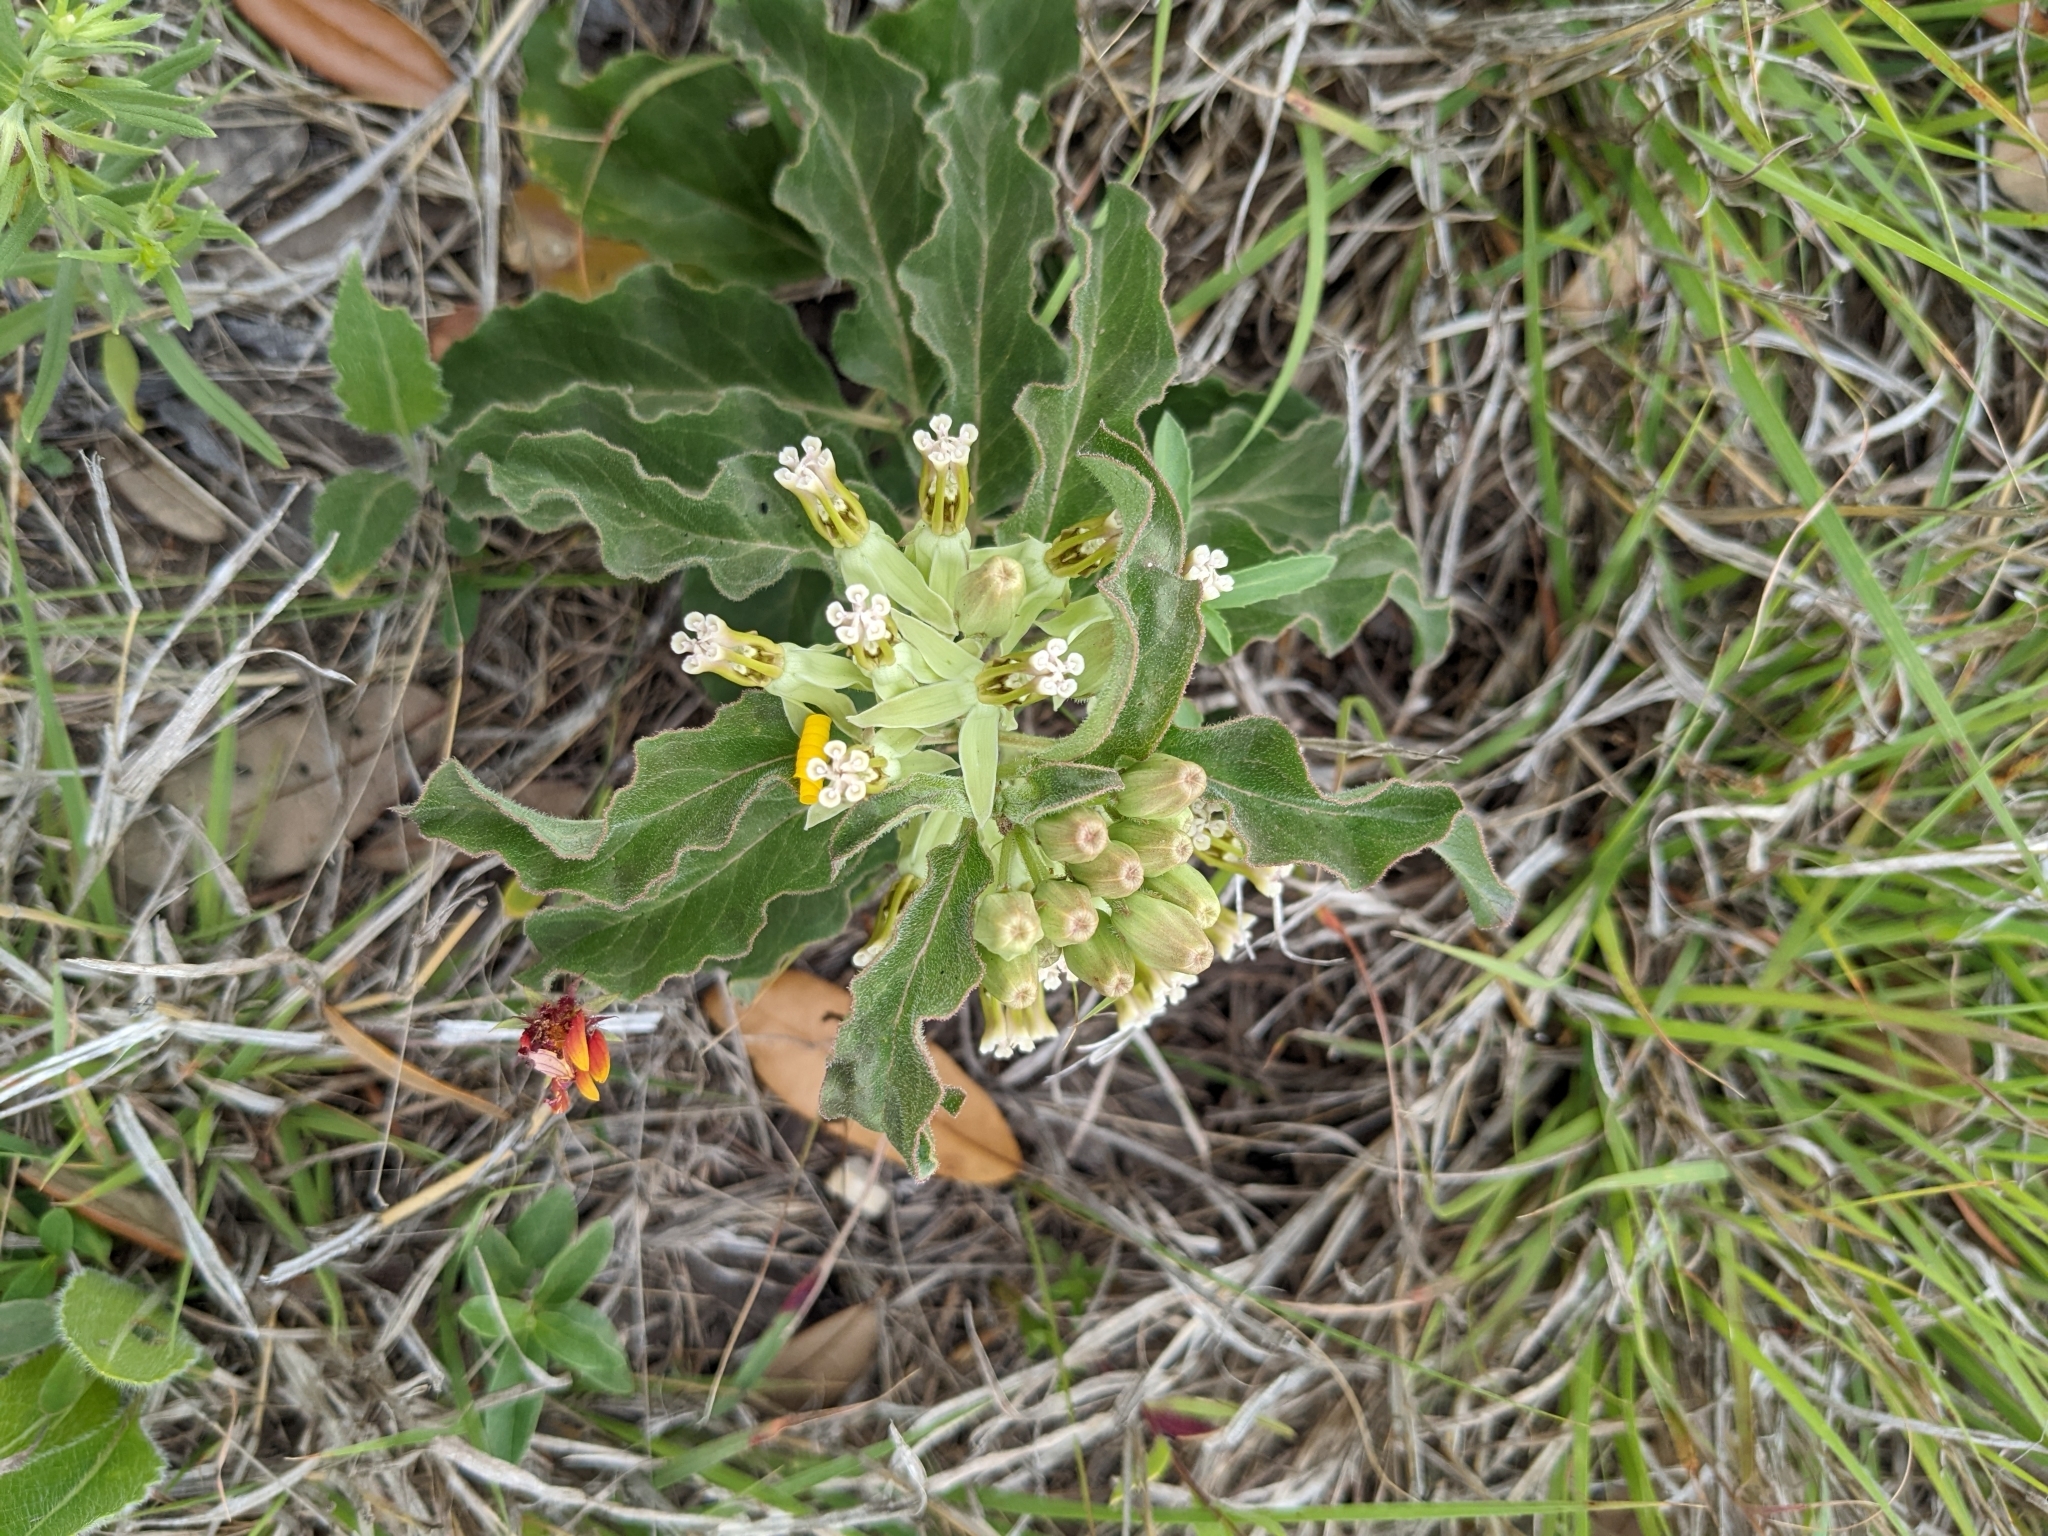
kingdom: Plantae
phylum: Tracheophyta
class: Magnoliopsida
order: Gentianales
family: Apocynaceae
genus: Asclepias
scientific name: Asclepias oenotheroides
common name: Zizotes milkweed
